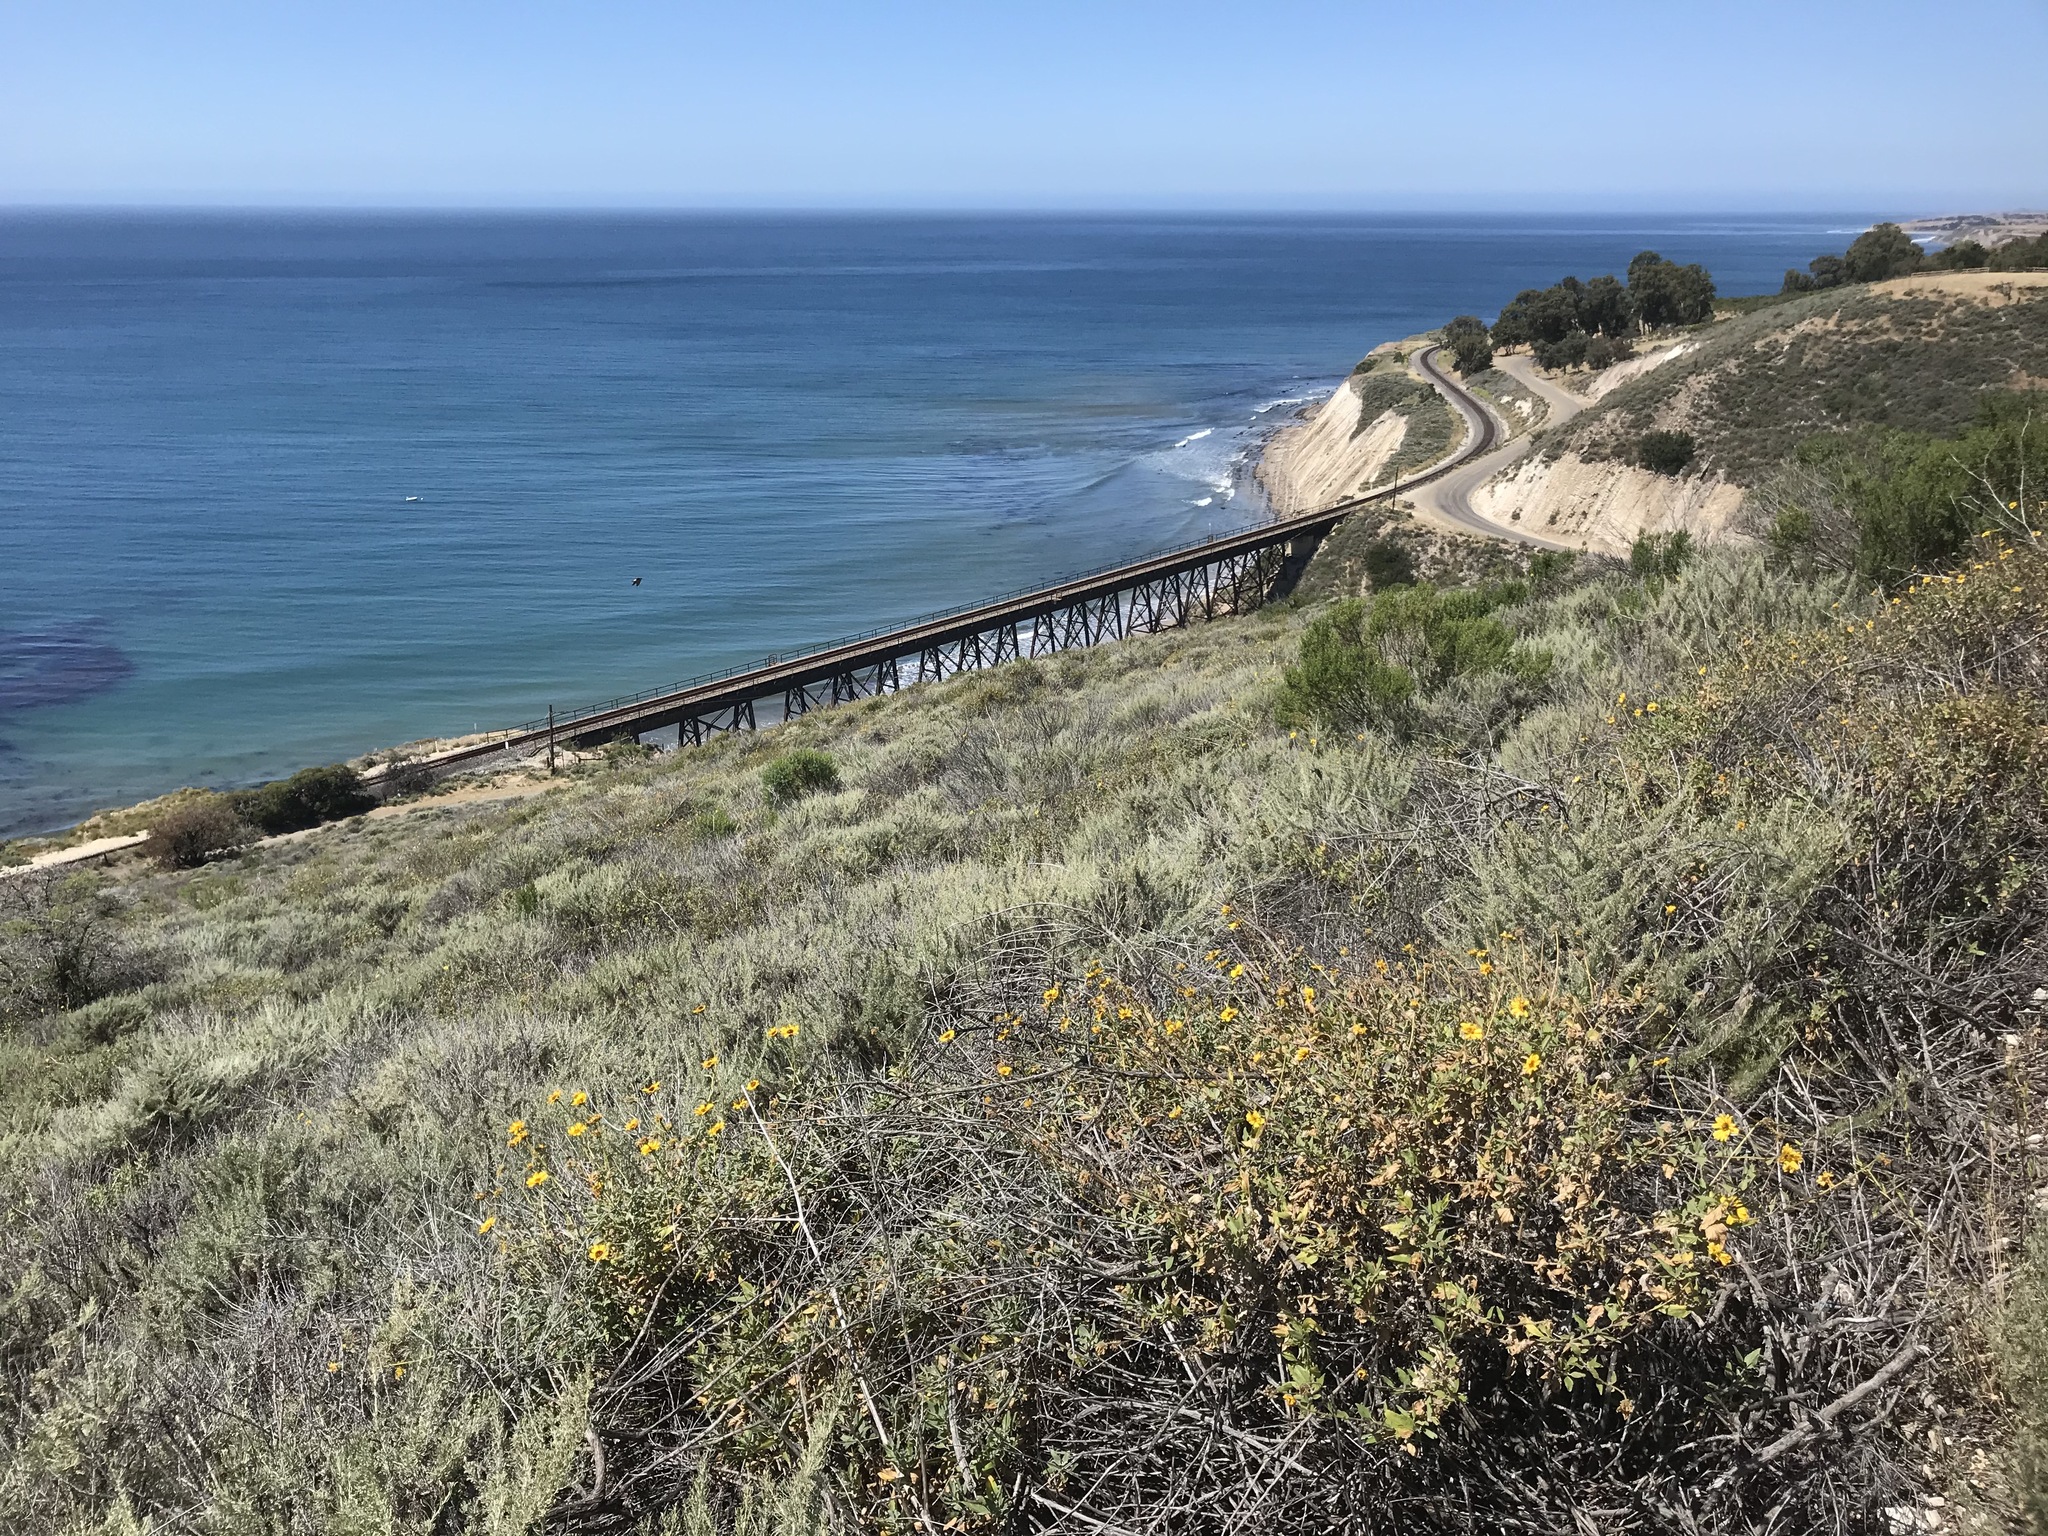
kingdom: Plantae
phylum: Tracheophyta
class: Magnoliopsida
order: Asterales
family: Asteraceae
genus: Encelia
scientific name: Encelia californica
